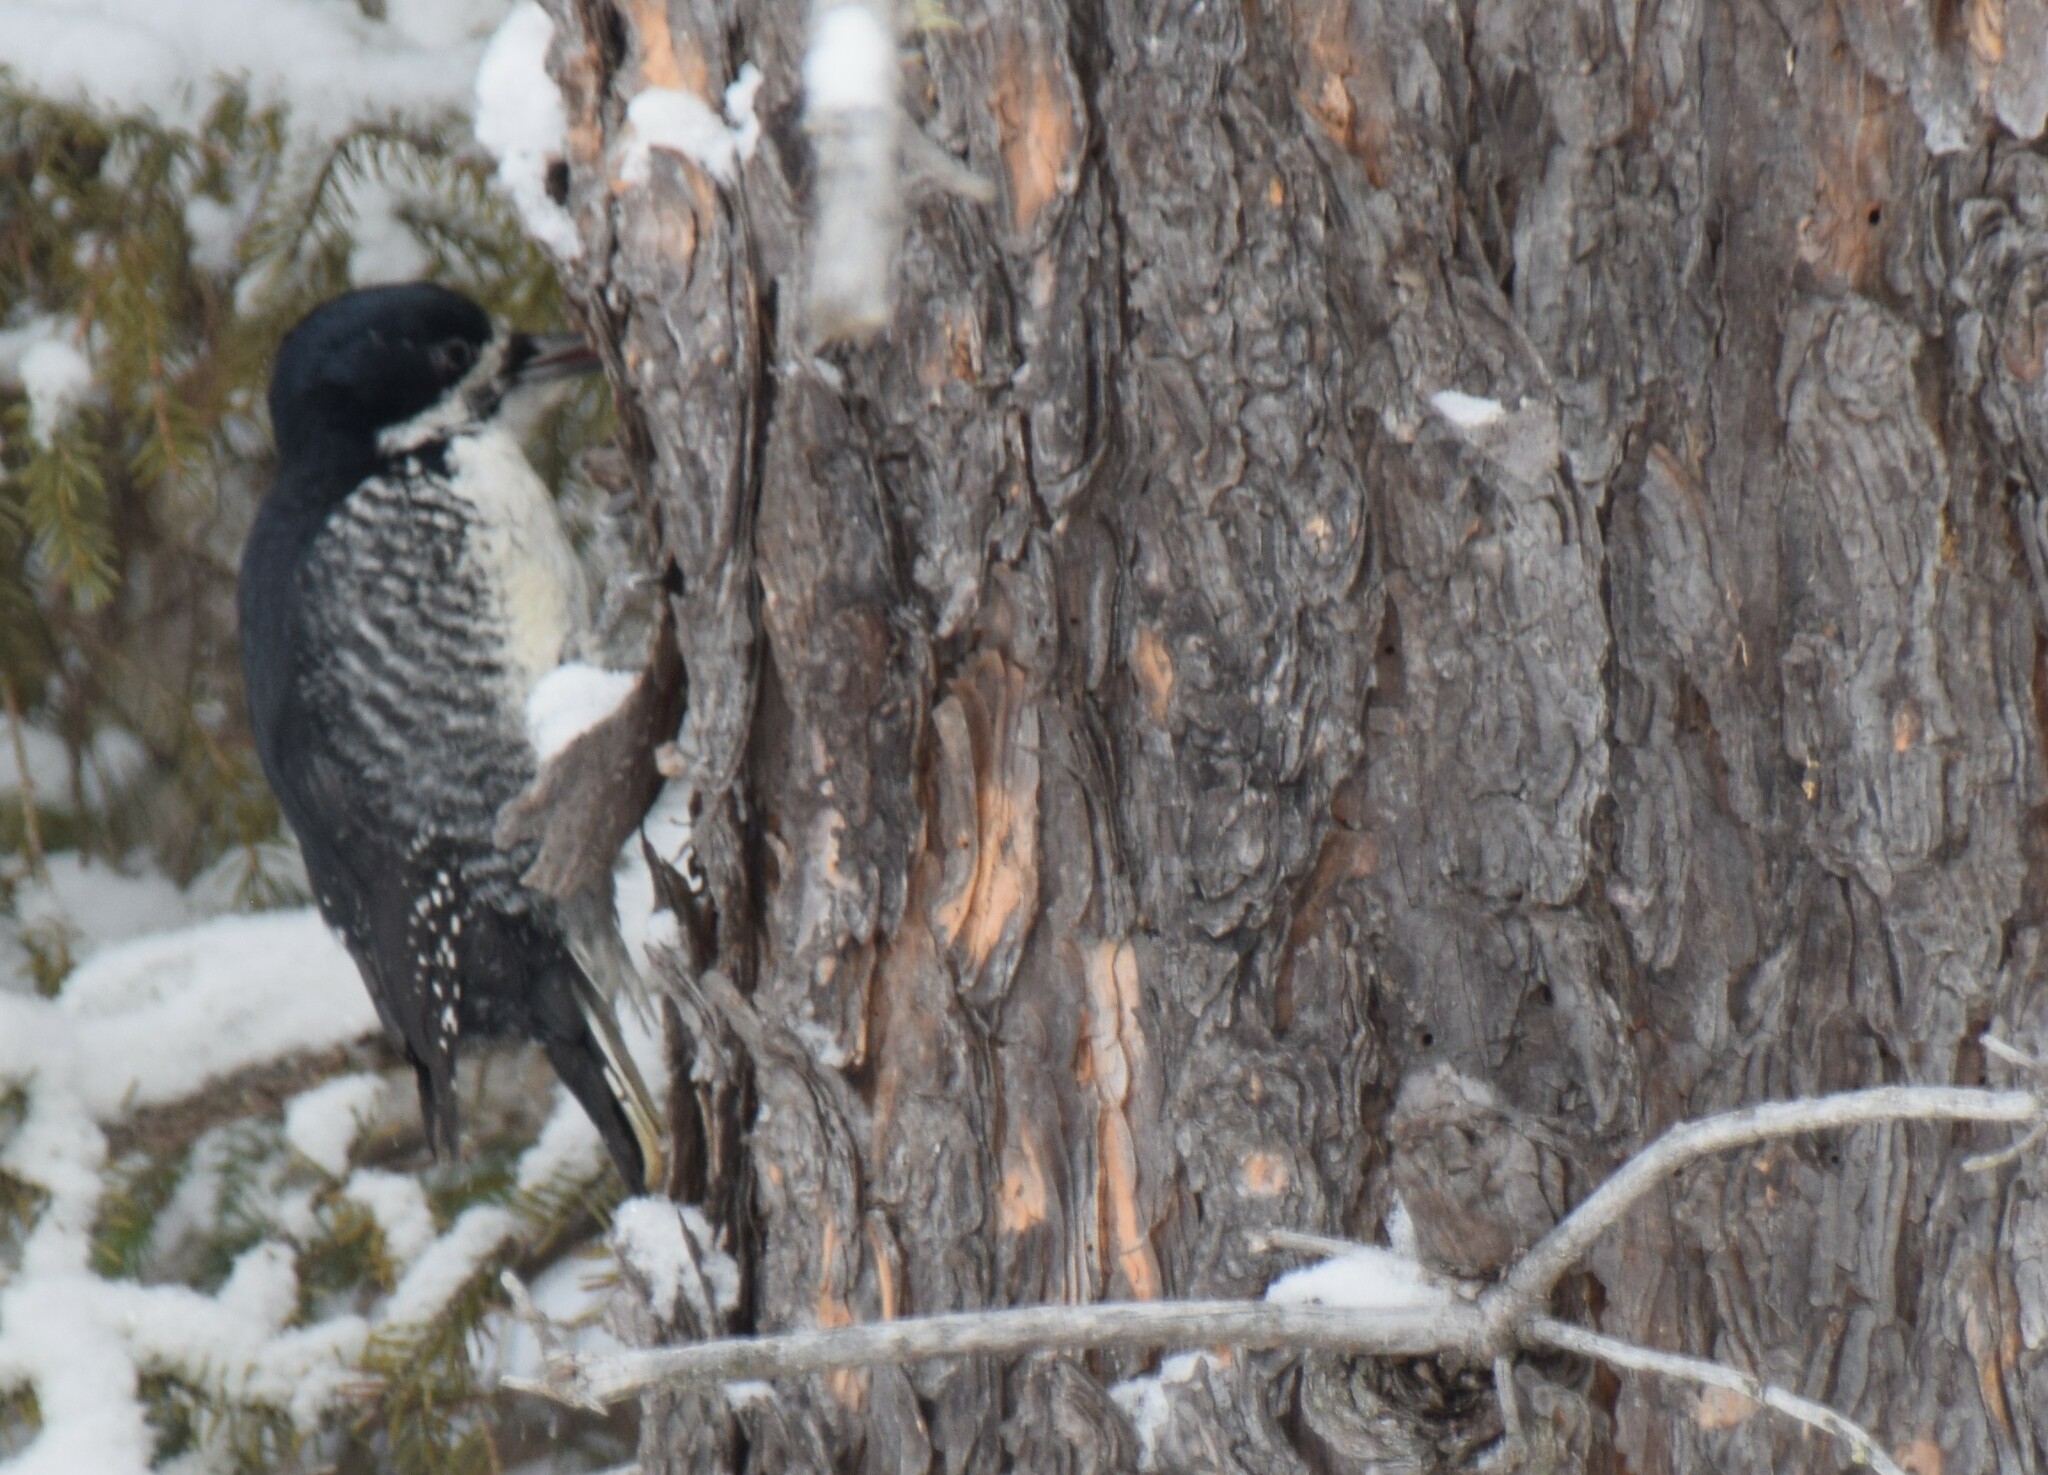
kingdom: Animalia
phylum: Chordata
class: Aves
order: Piciformes
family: Picidae
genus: Picoides
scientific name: Picoides arcticus
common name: Black-backed woodpecker
